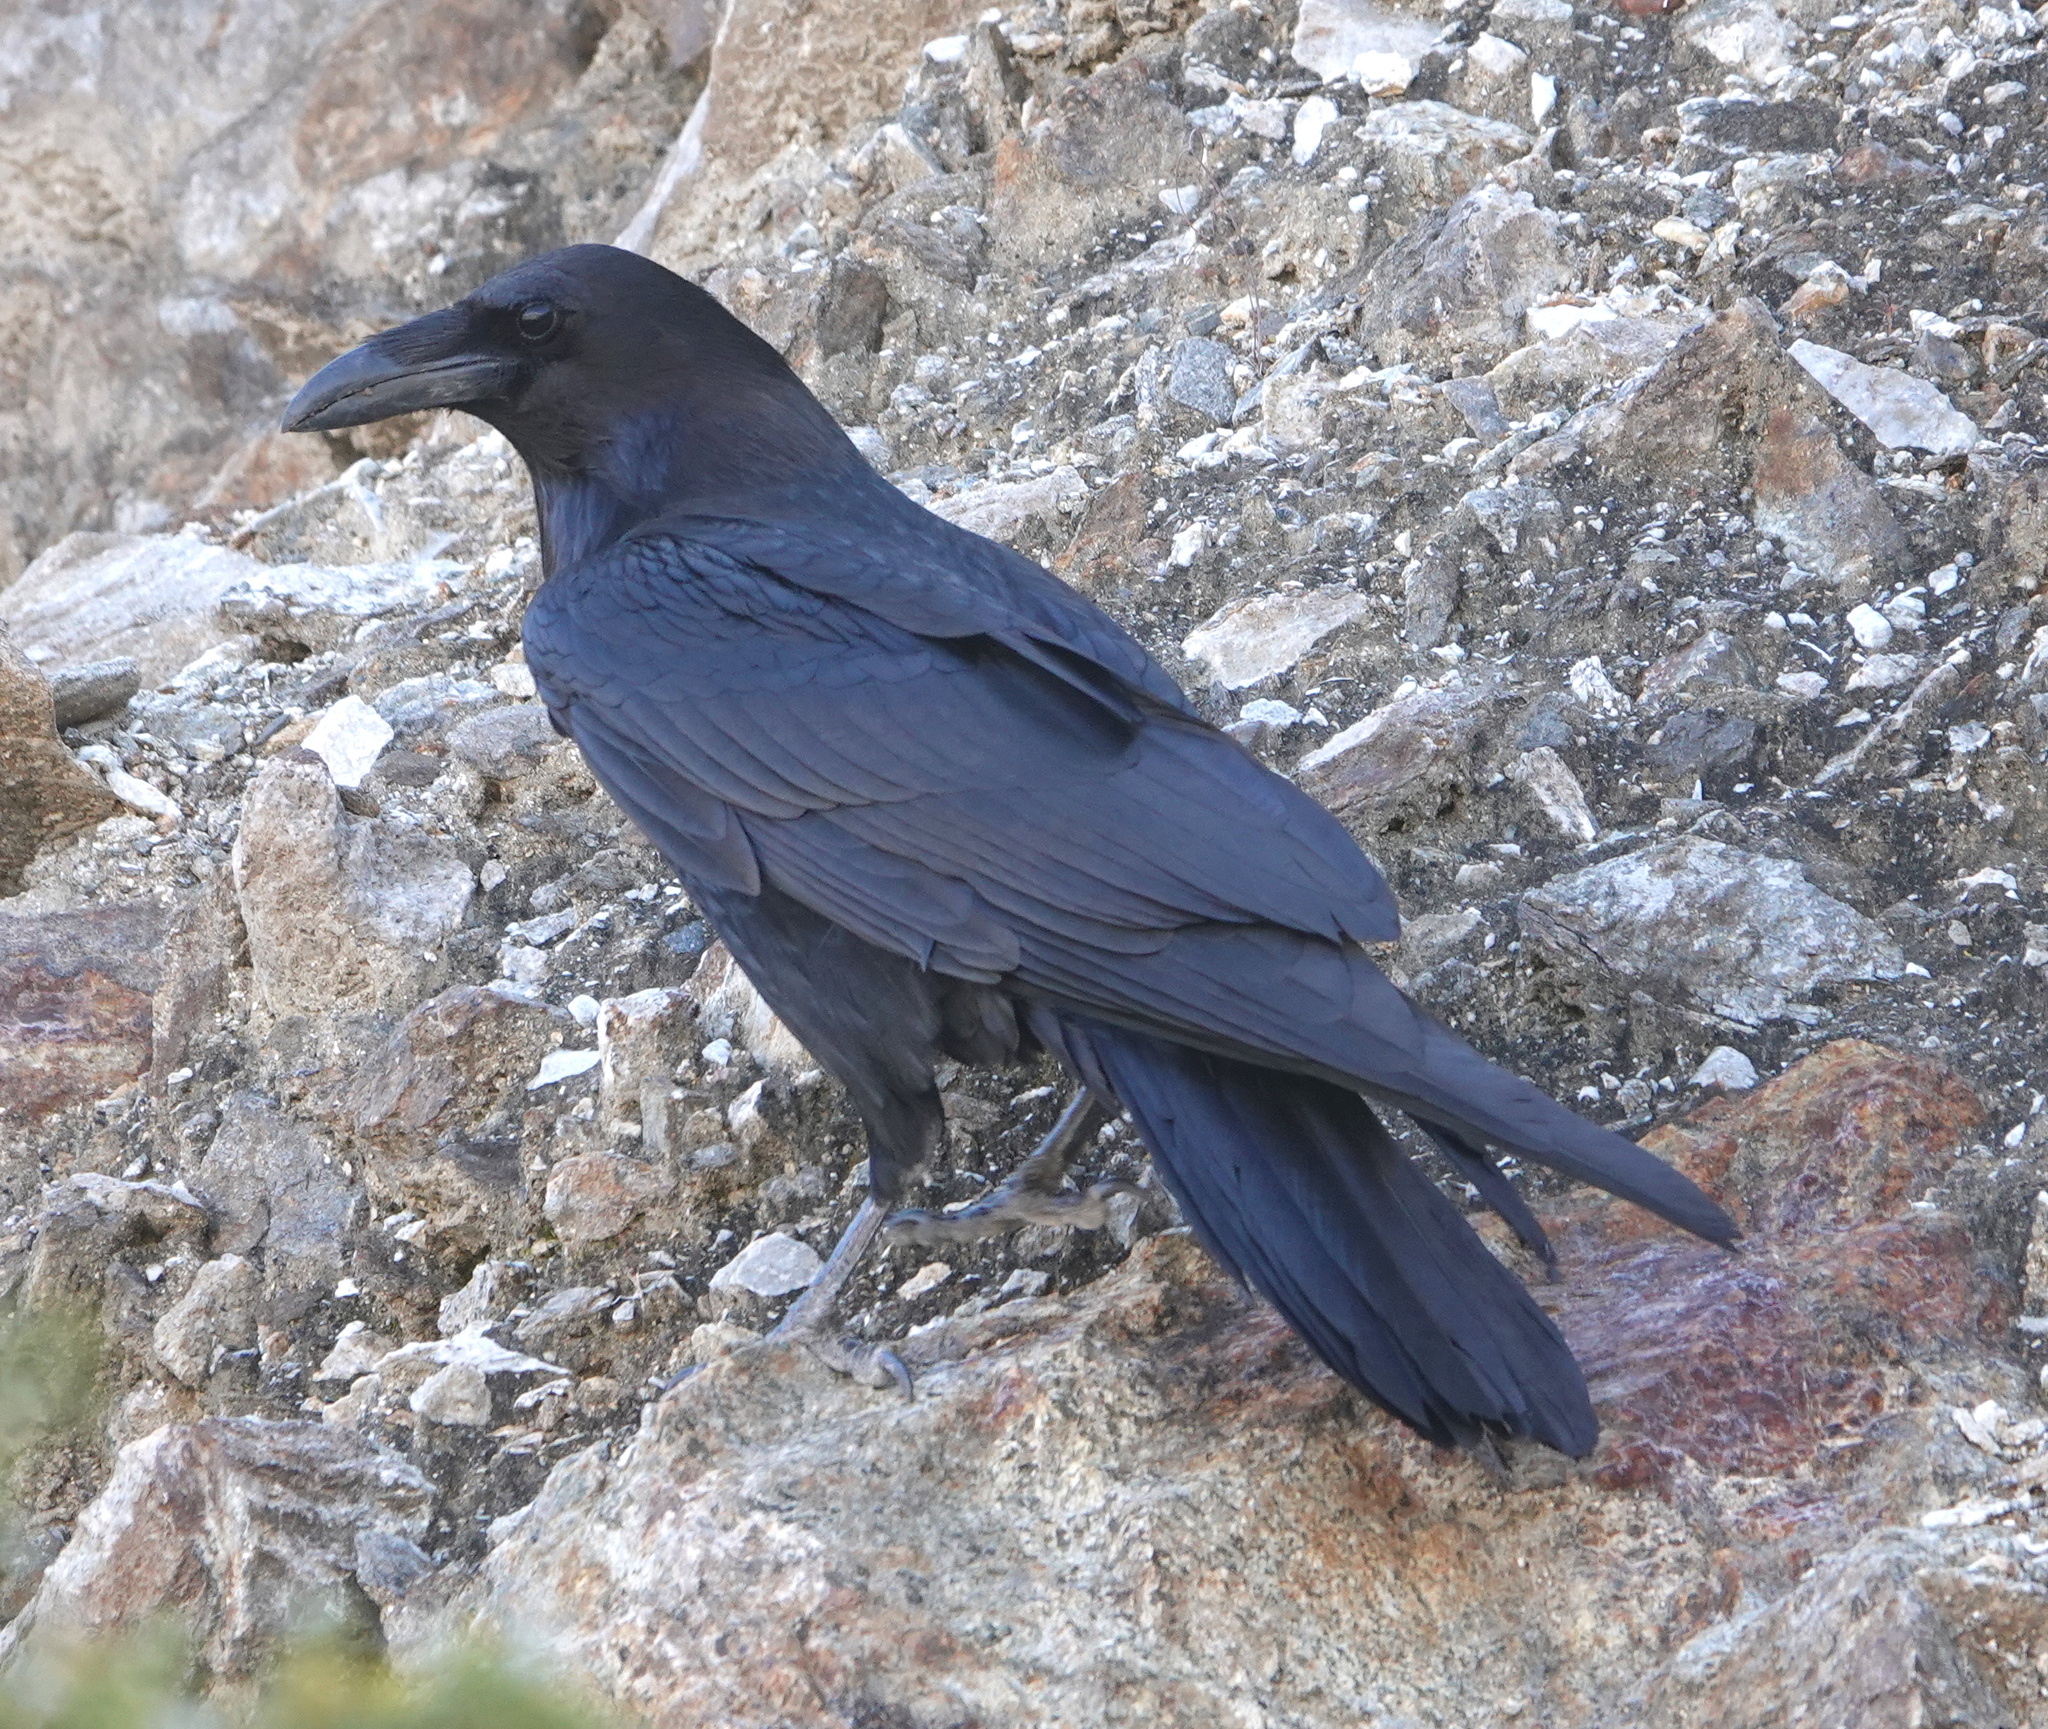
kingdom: Animalia
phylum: Chordata
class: Aves
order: Passeriformes
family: Corvidae
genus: Corvus
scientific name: Corvus corax
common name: Common raven
